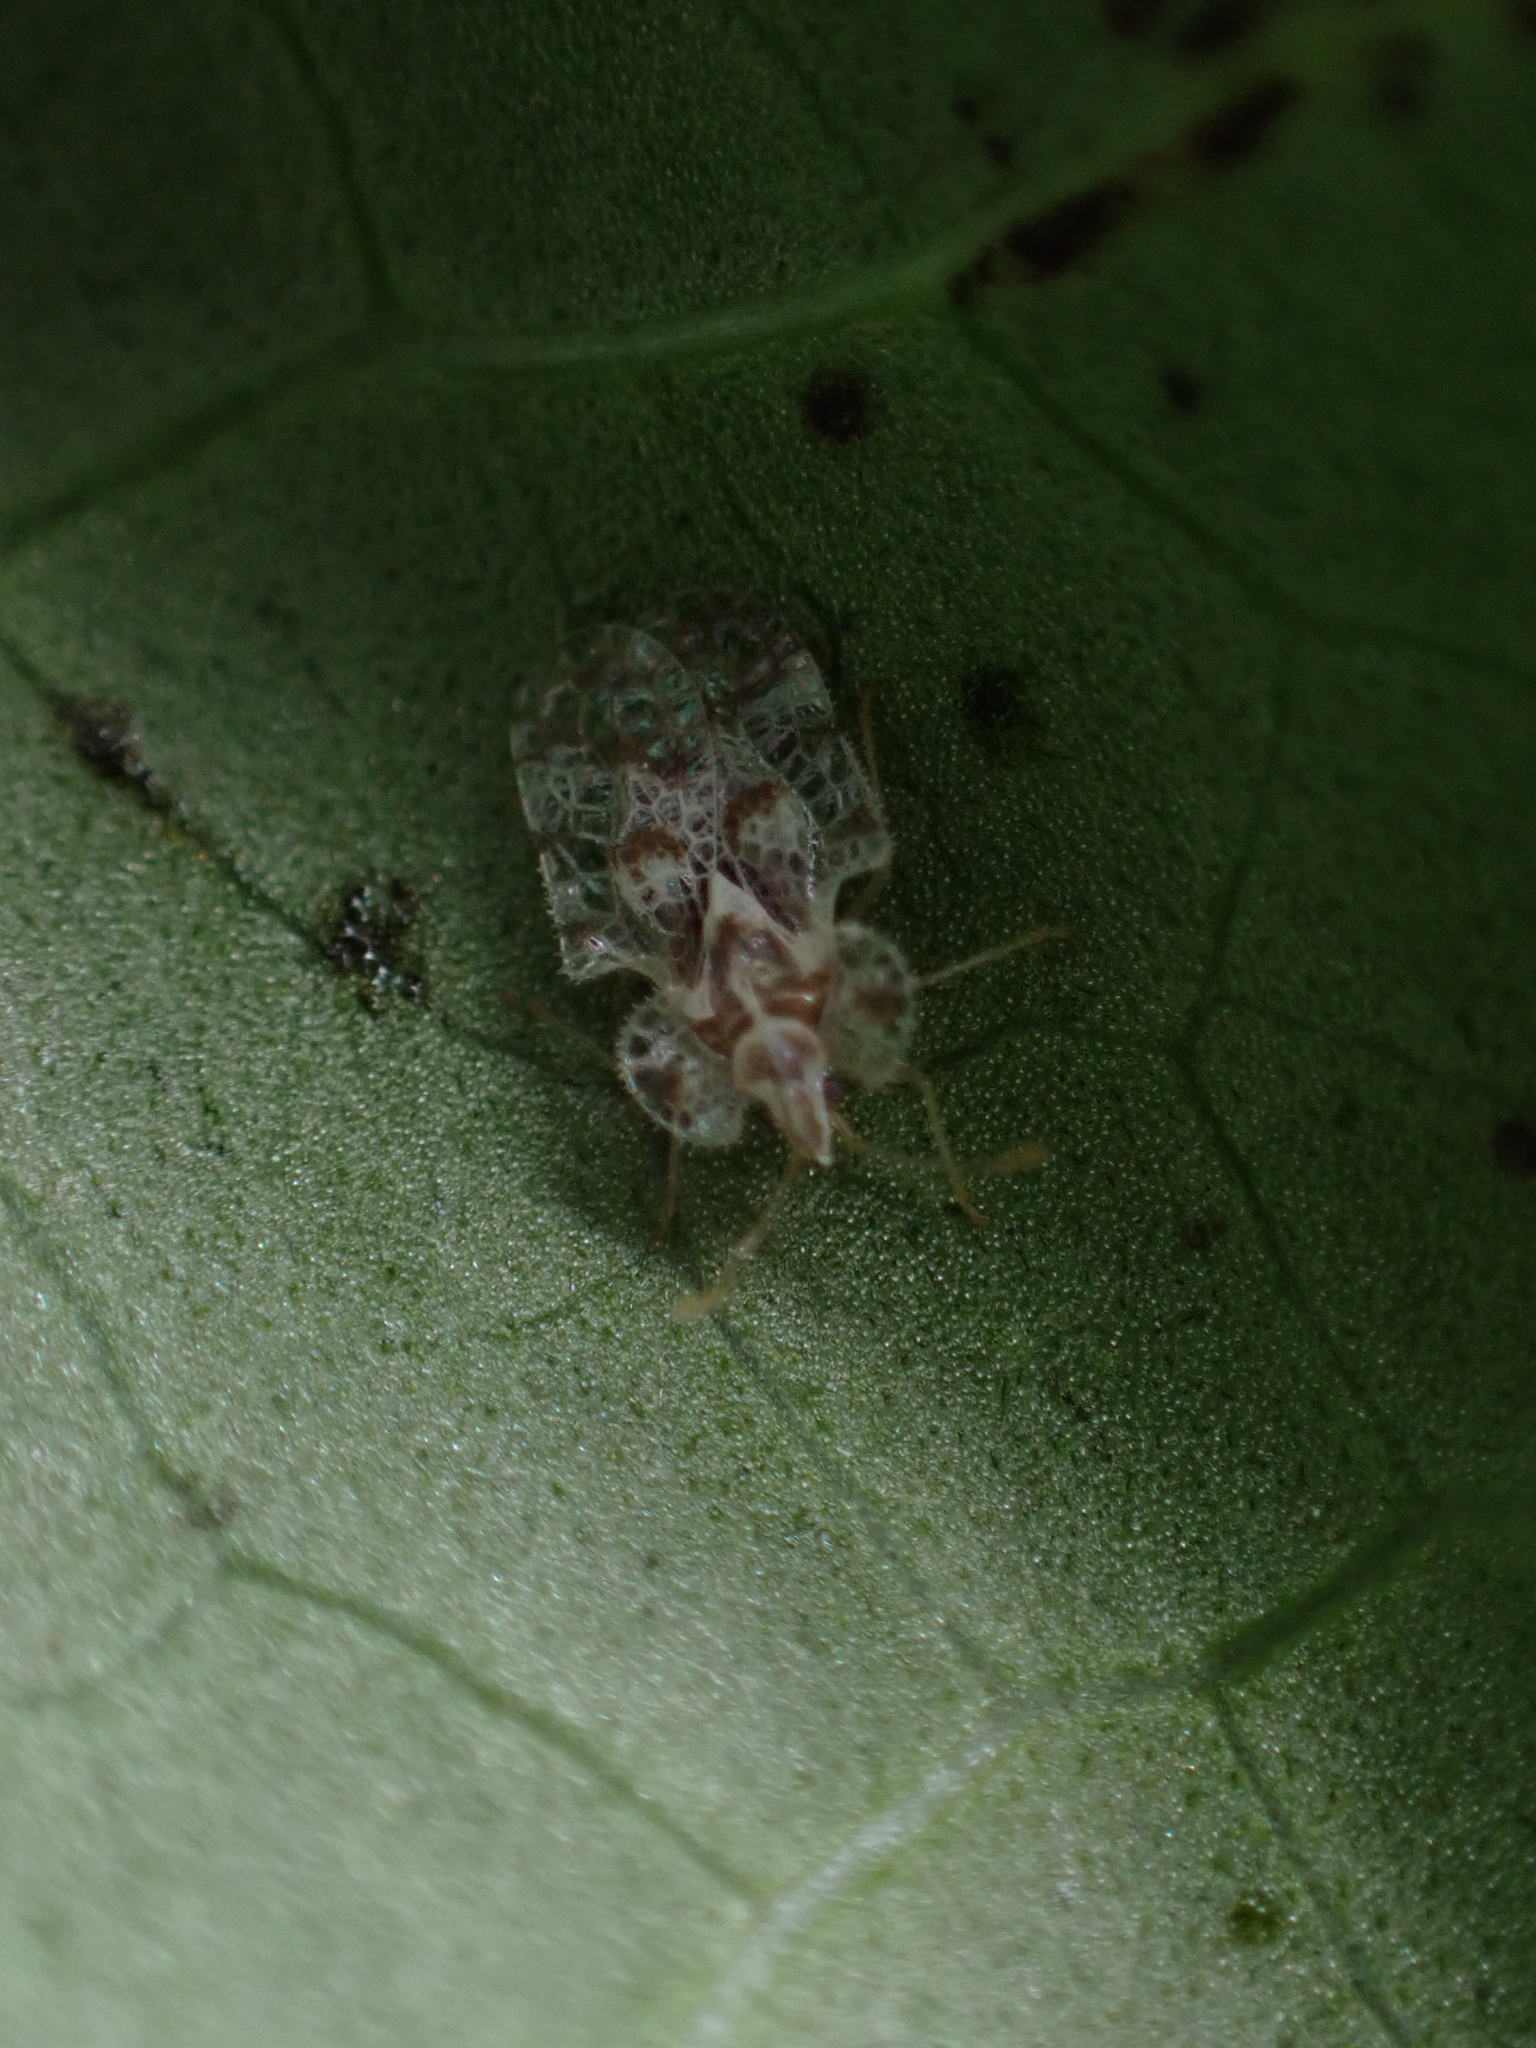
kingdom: Animalia
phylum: Arthropoda
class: Insecta
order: Hemiptera
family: Tingidae
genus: Corythucha
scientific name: Corythucha gossypii
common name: Cotton lace bug
